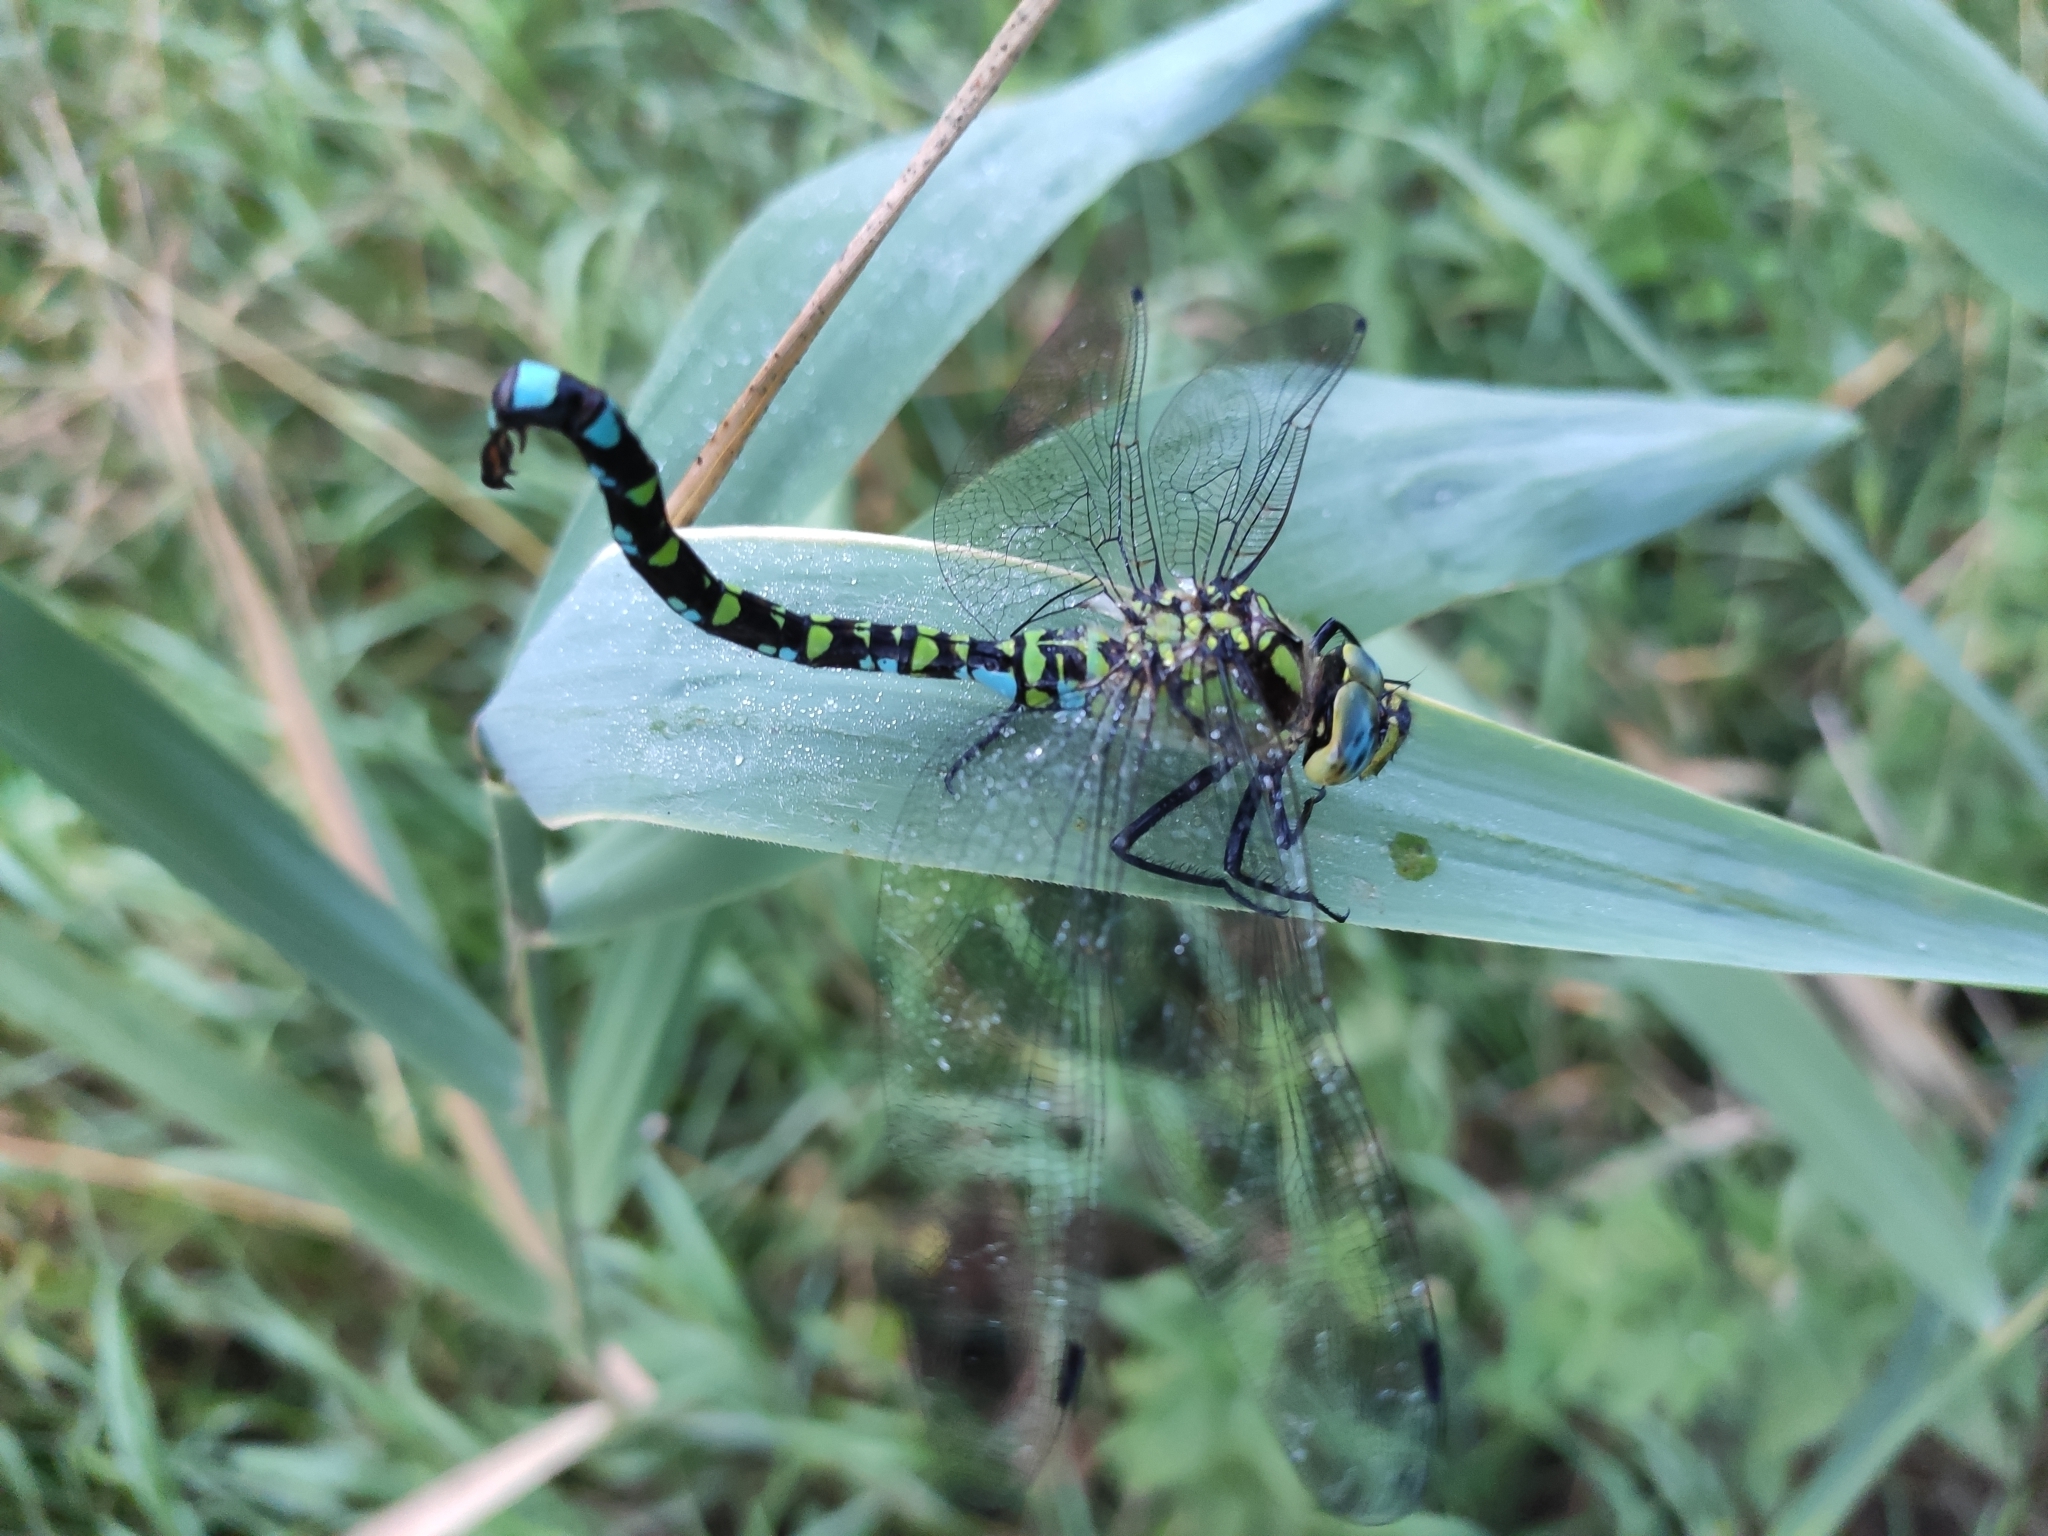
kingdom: Animalia
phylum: Arthropoda
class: Insecta
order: Odonata
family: Aeshnidae
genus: Aeshna
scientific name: Aeshna cyanea
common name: Southern hawker
